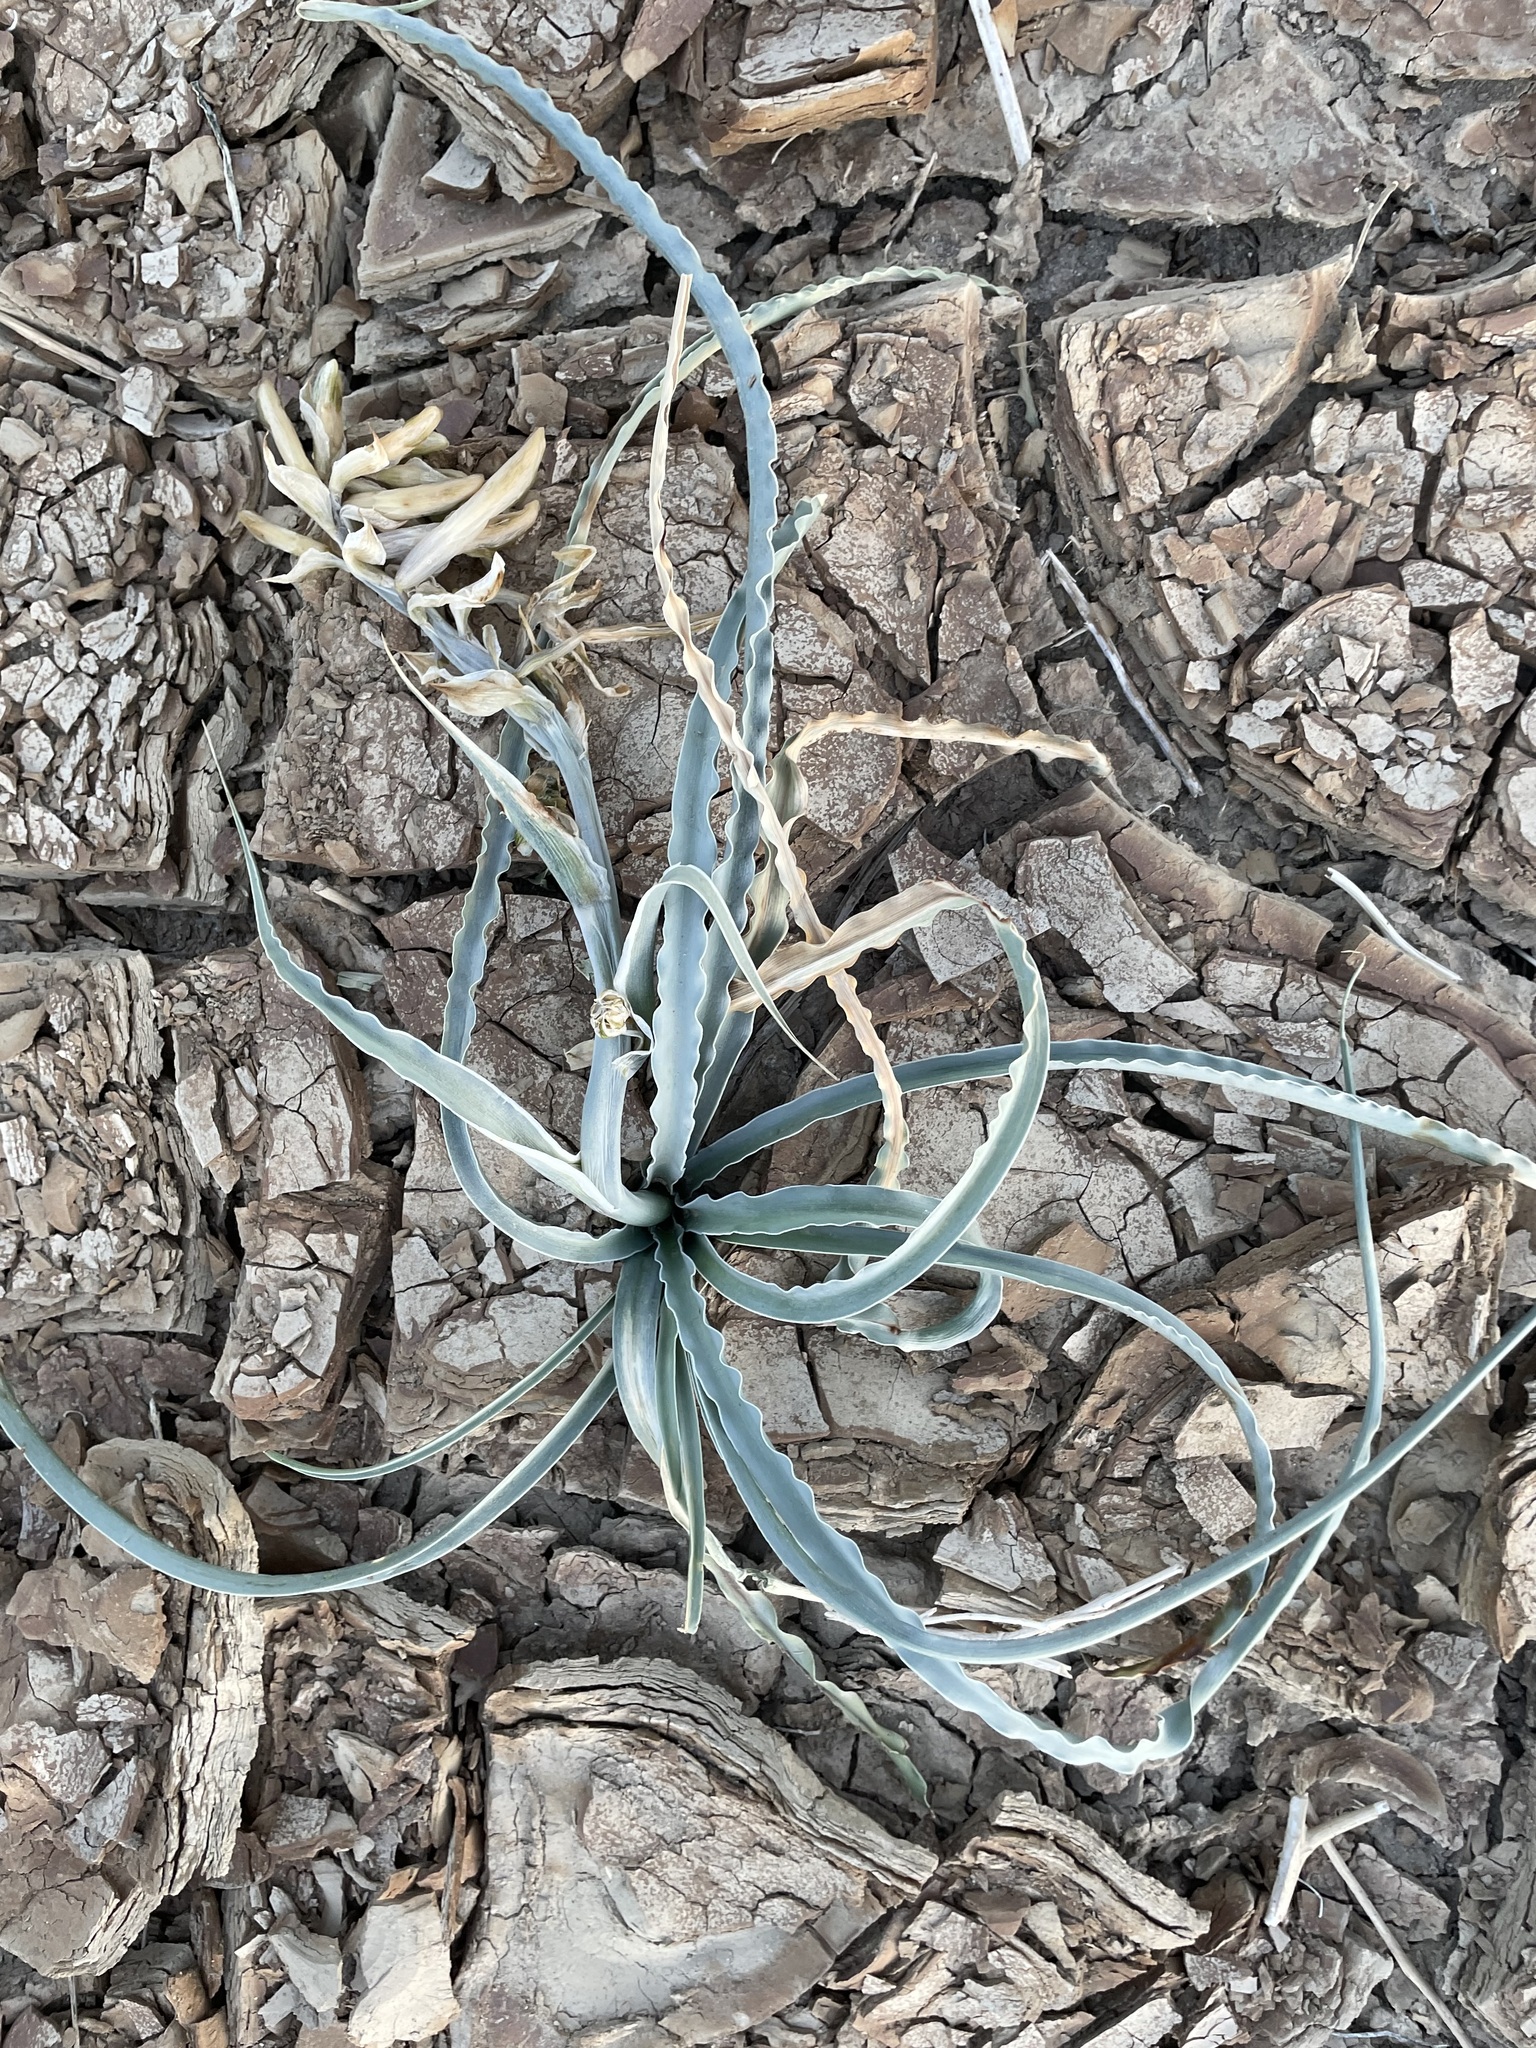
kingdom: Plantae
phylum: Tracheophyta
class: Liliopsida
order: Asparagales
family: Asparagaceae
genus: Hesperocallis
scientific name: Hesperocallis undulata
